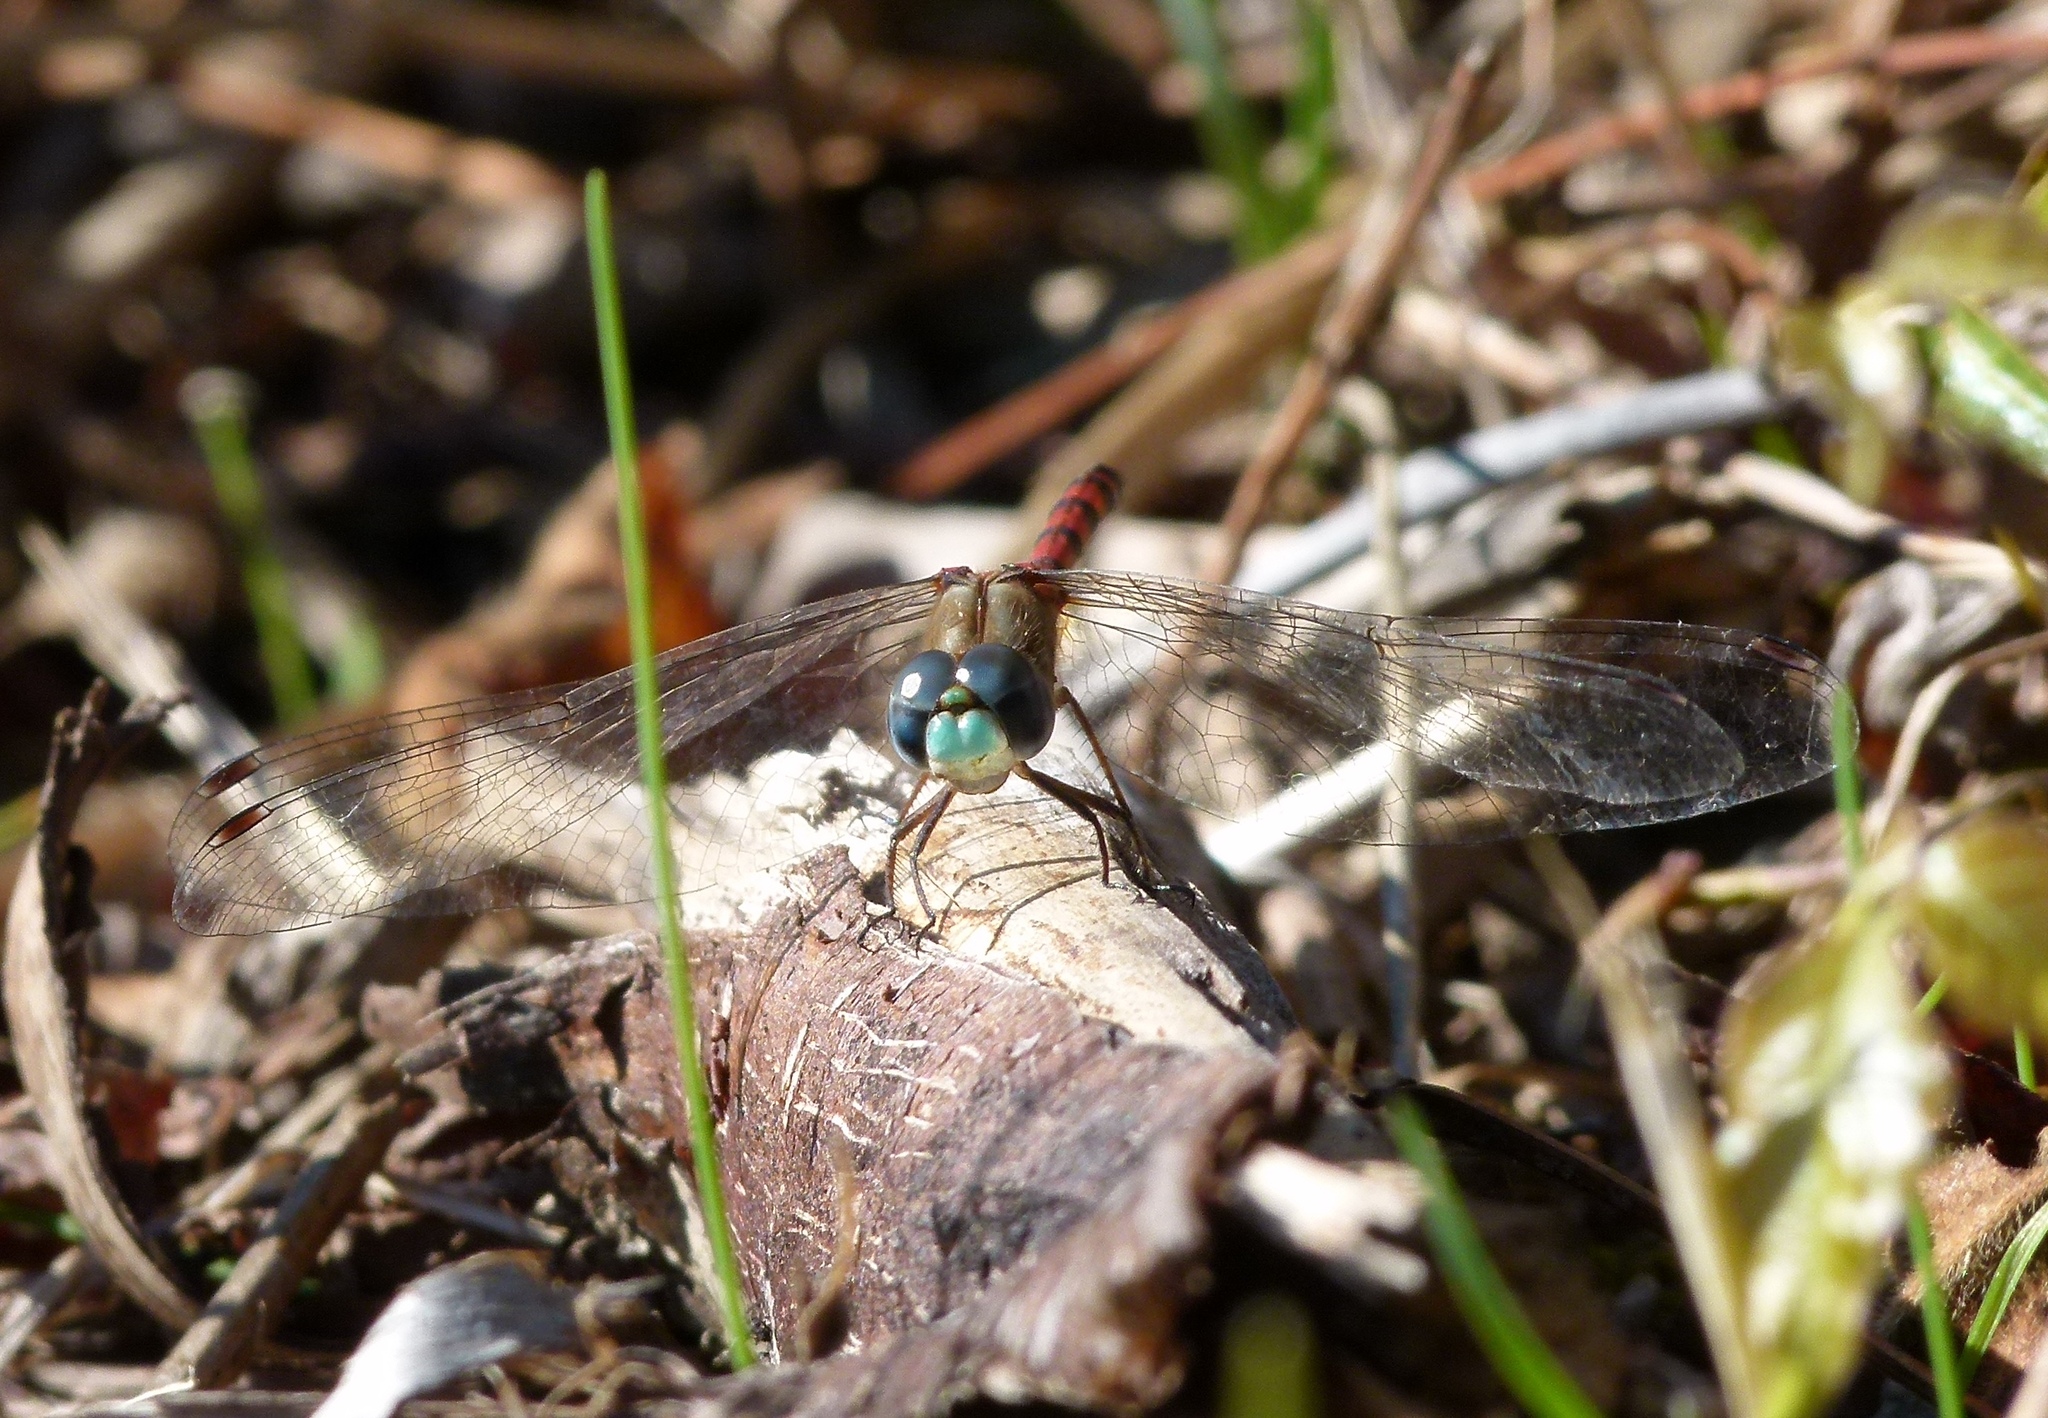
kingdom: Animalia
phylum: Arthropoda
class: Insecta
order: Odonata
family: Libellulidae
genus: Sympetrum
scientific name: Sympetrum ambiguum
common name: Blue-faced meadowhawk
